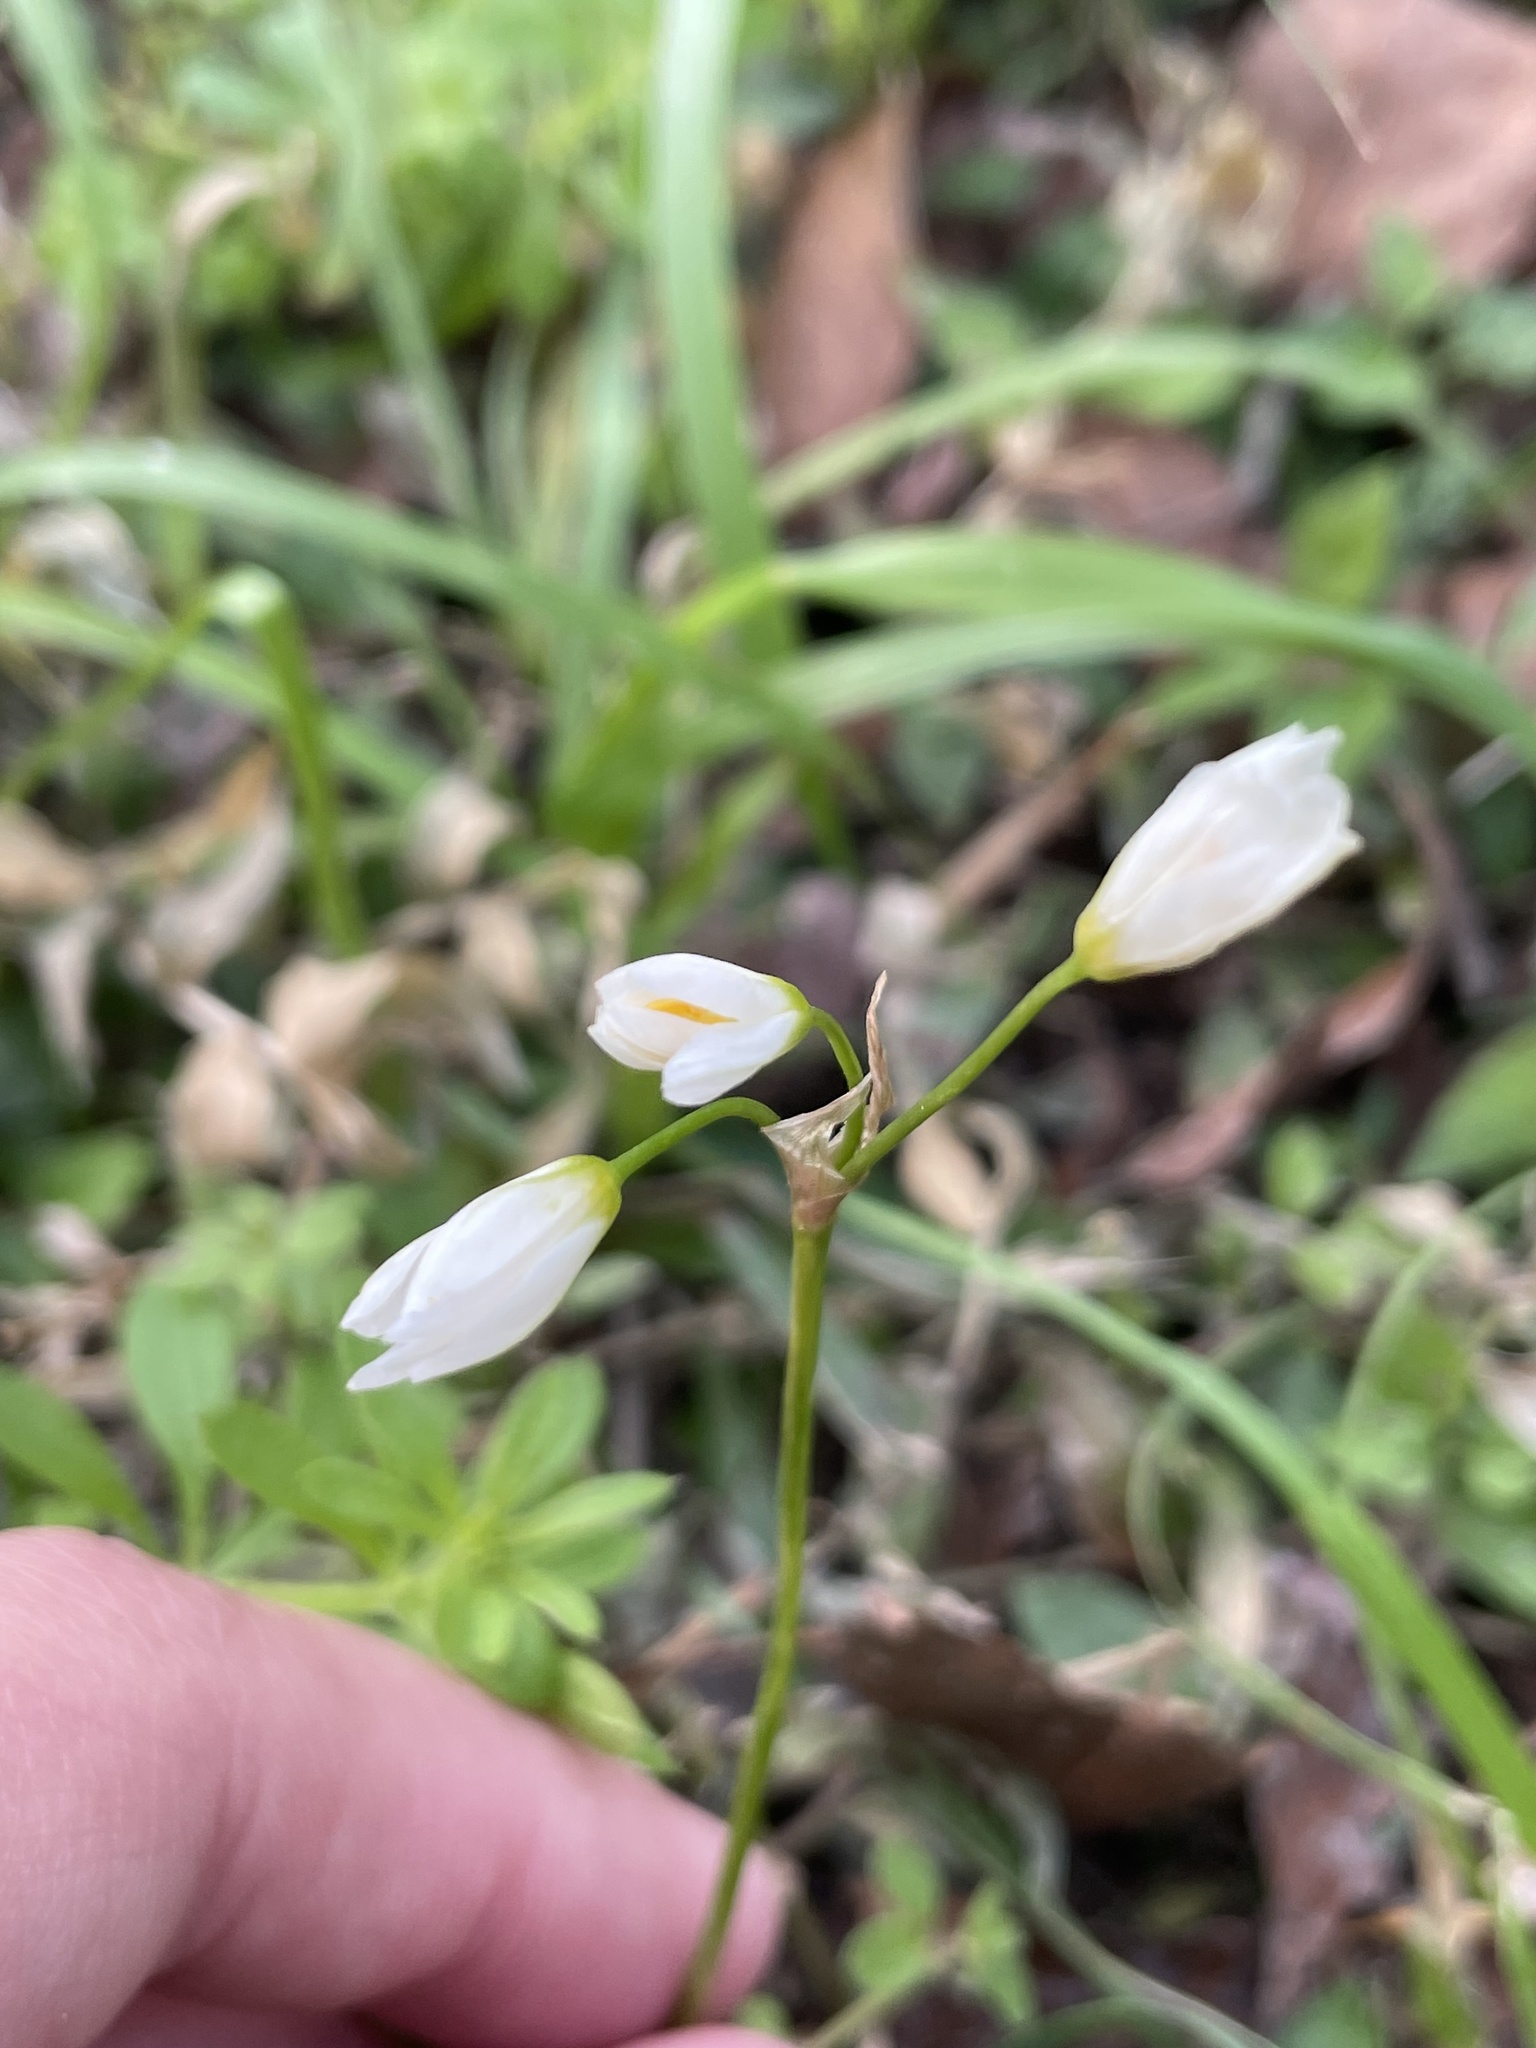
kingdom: Plantae
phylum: Tracheophyta
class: Liliopsida
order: Asparagales
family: Amaryllidaceae
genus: Nothoscordum
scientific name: Nothoscordum bivalve
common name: Crow-poison
